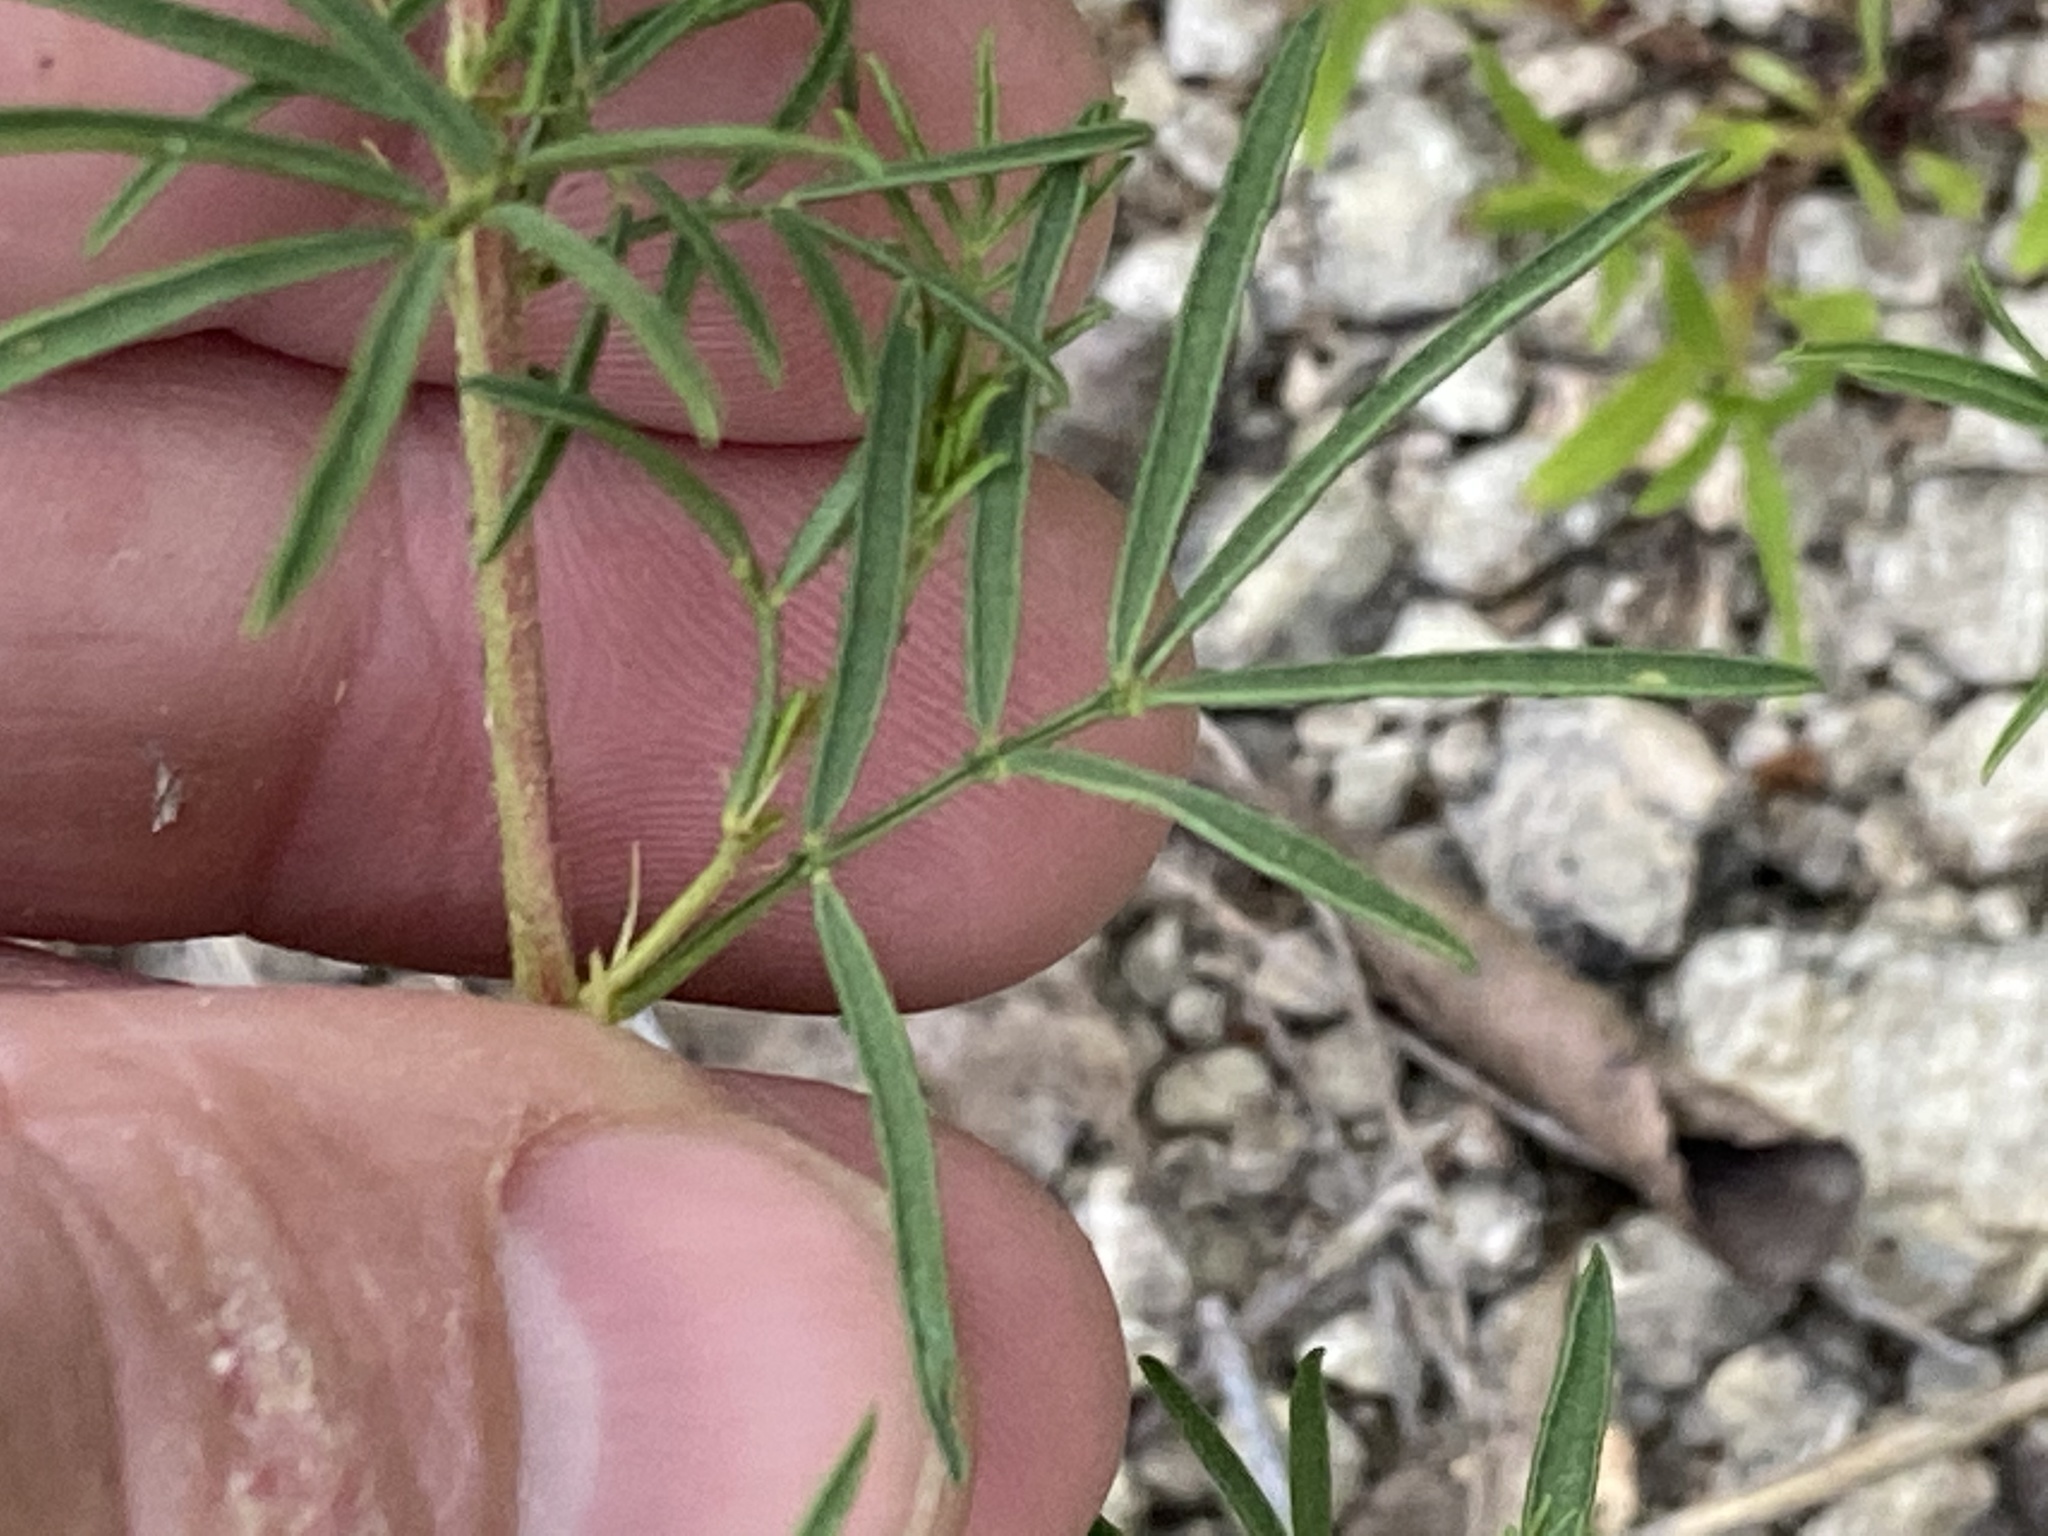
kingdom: Plantae
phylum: Tracheophyta
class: Magnoliopsida
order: Fabales
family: Fabaceae
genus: Dalea
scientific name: Dalea gattingeri
